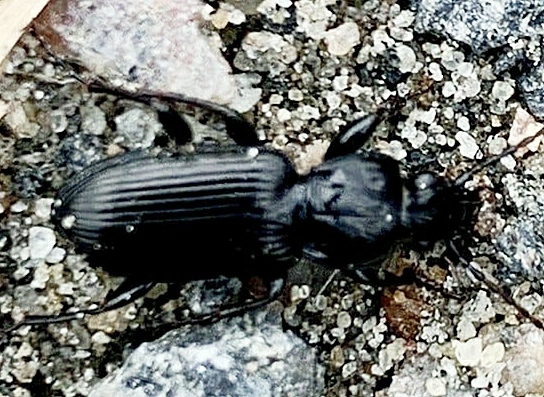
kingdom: Animalia
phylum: Arthropoda
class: Insecta
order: Coleoptera
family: Carabidae
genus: Pterostichus
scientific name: Pterostichus melanarius
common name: European dark harp ground beetle
